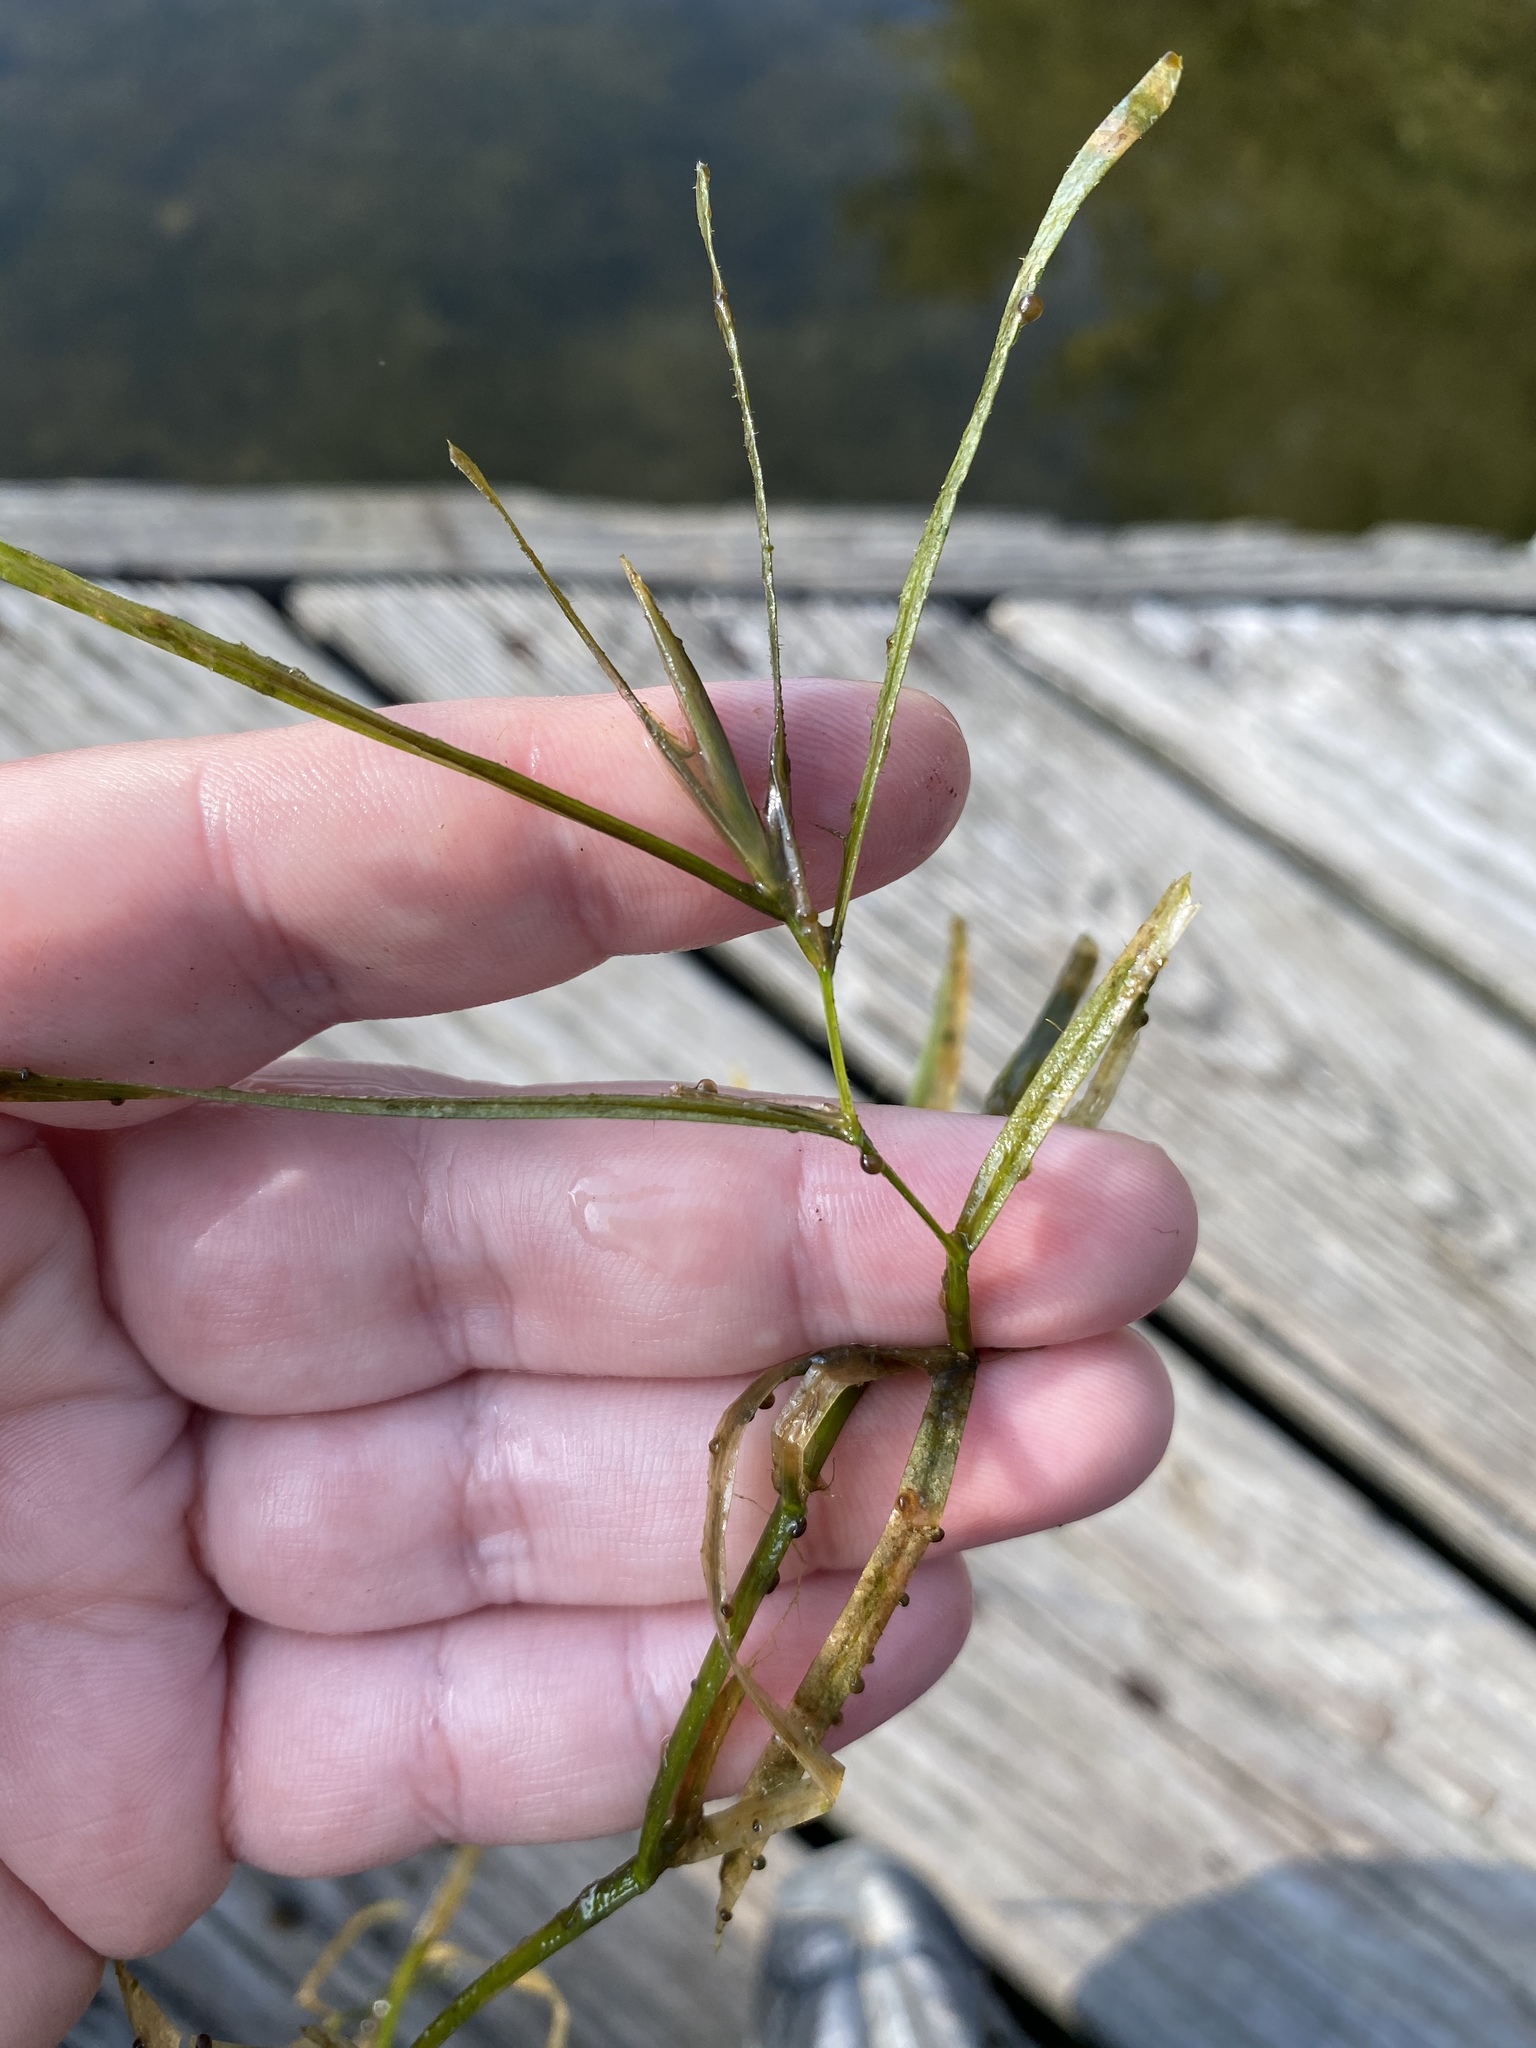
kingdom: Plantae
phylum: Tracheophyta
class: Liliopsida
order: Alismatales
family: Potamogetonaceae
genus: Potamogeton
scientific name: Potamogeton zosteriformis
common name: Eelgrass pondweed
